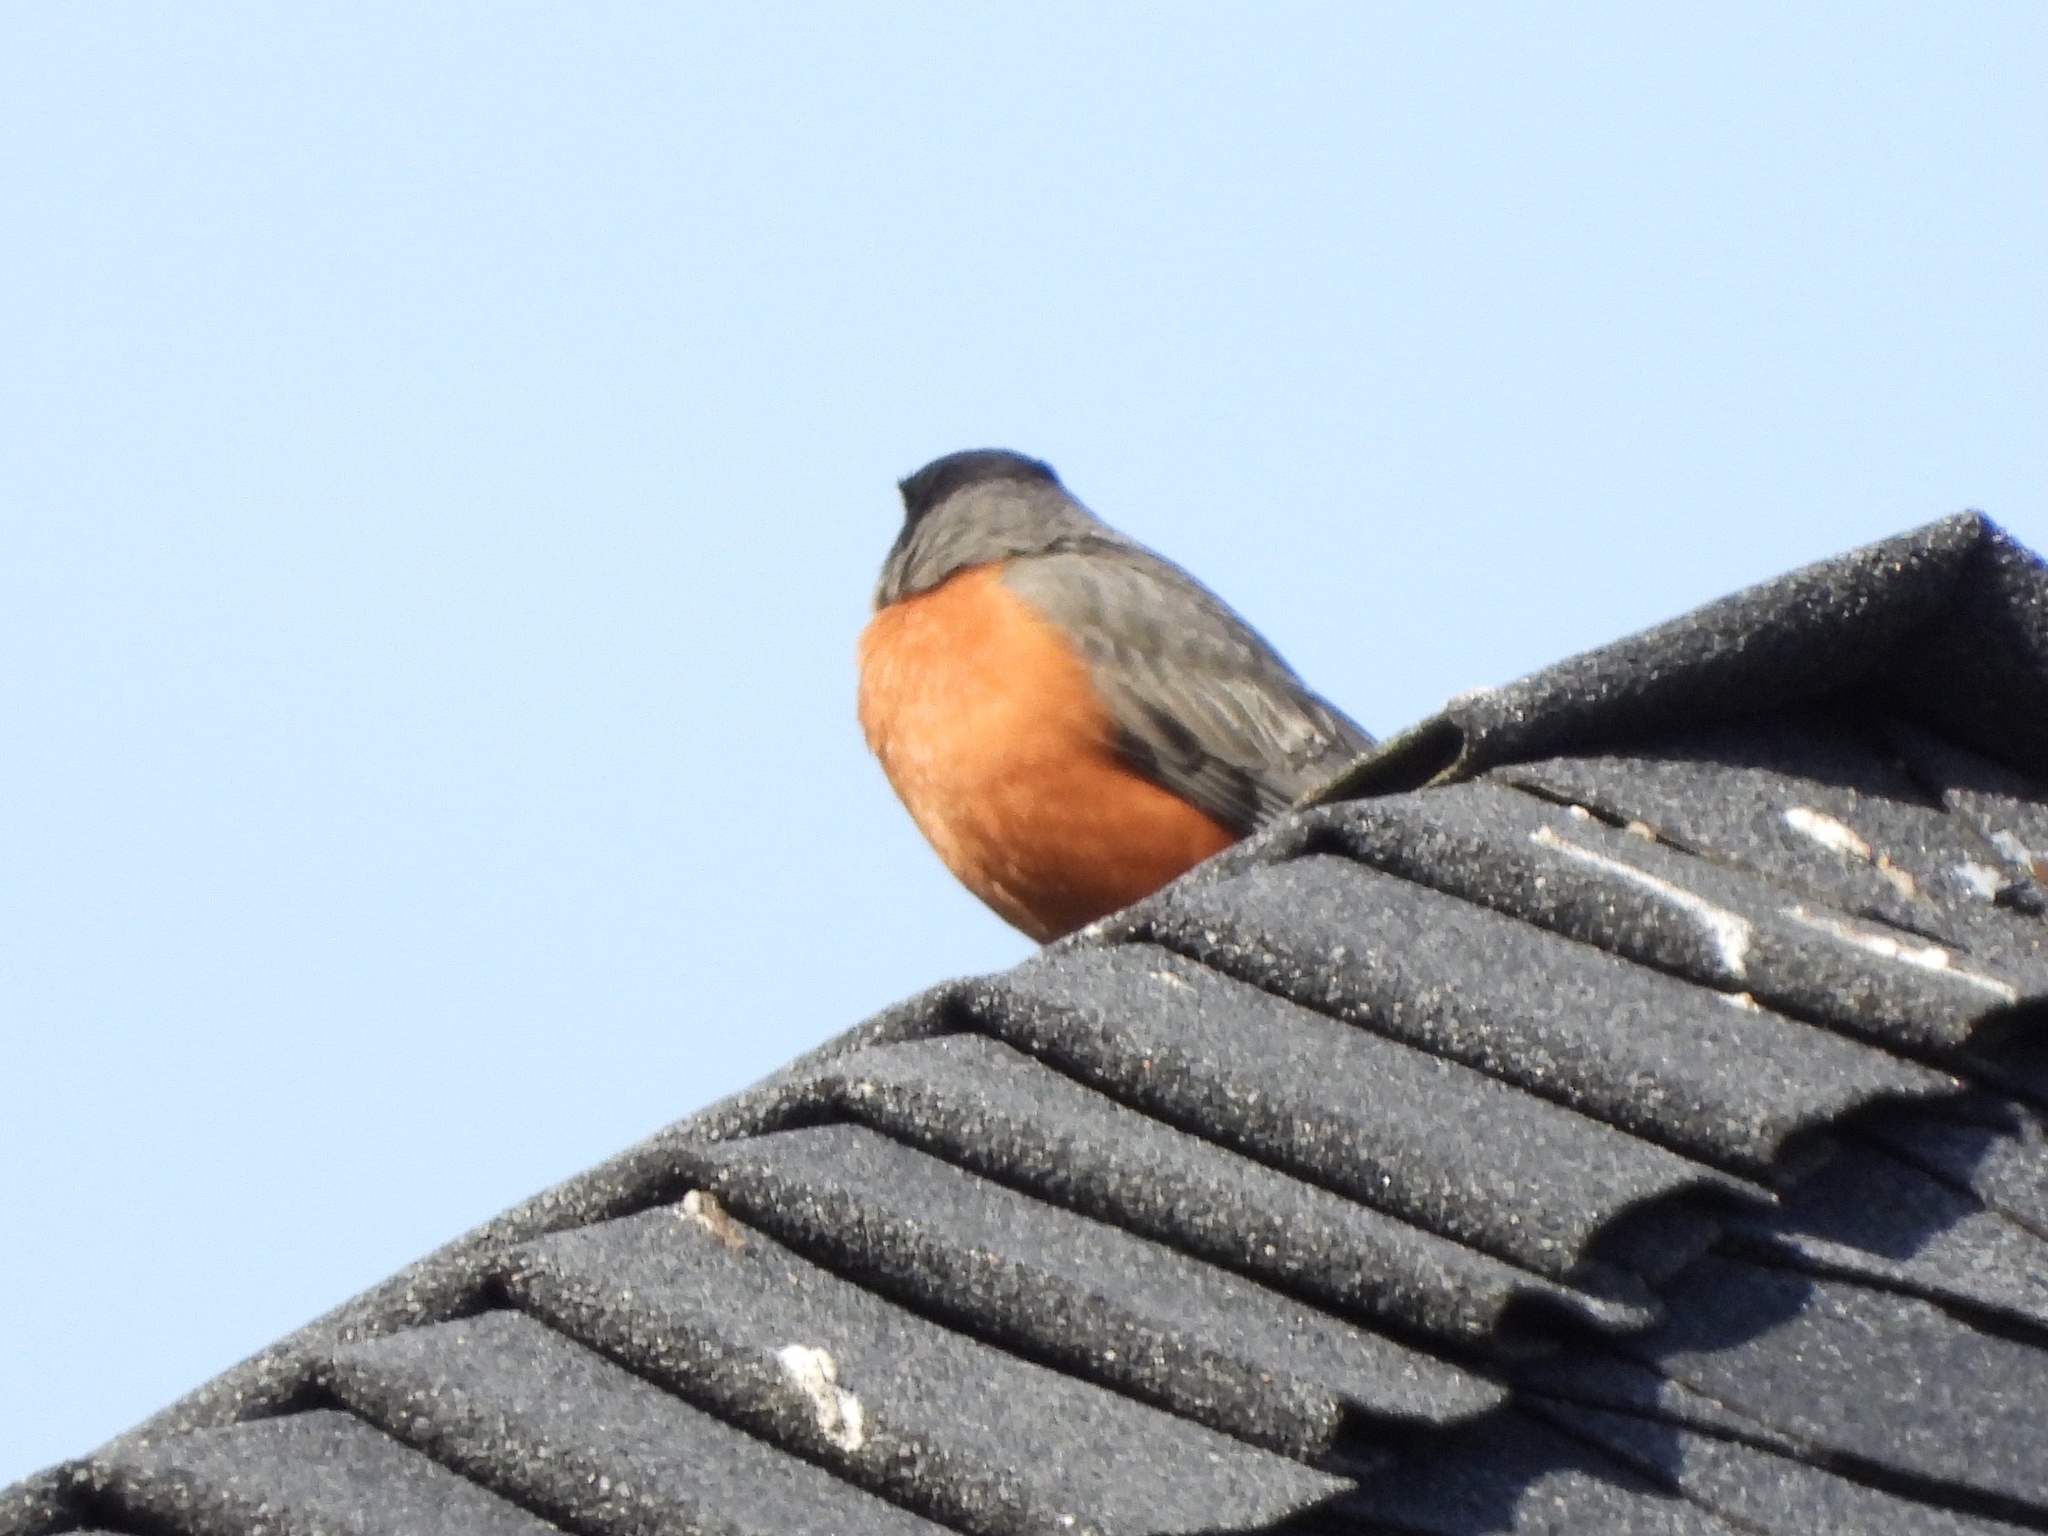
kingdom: Animalia
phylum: Chordata
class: Aves
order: Passeriformes
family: Turdidae
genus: Turdus
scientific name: Turdus migratorius
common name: American robin
